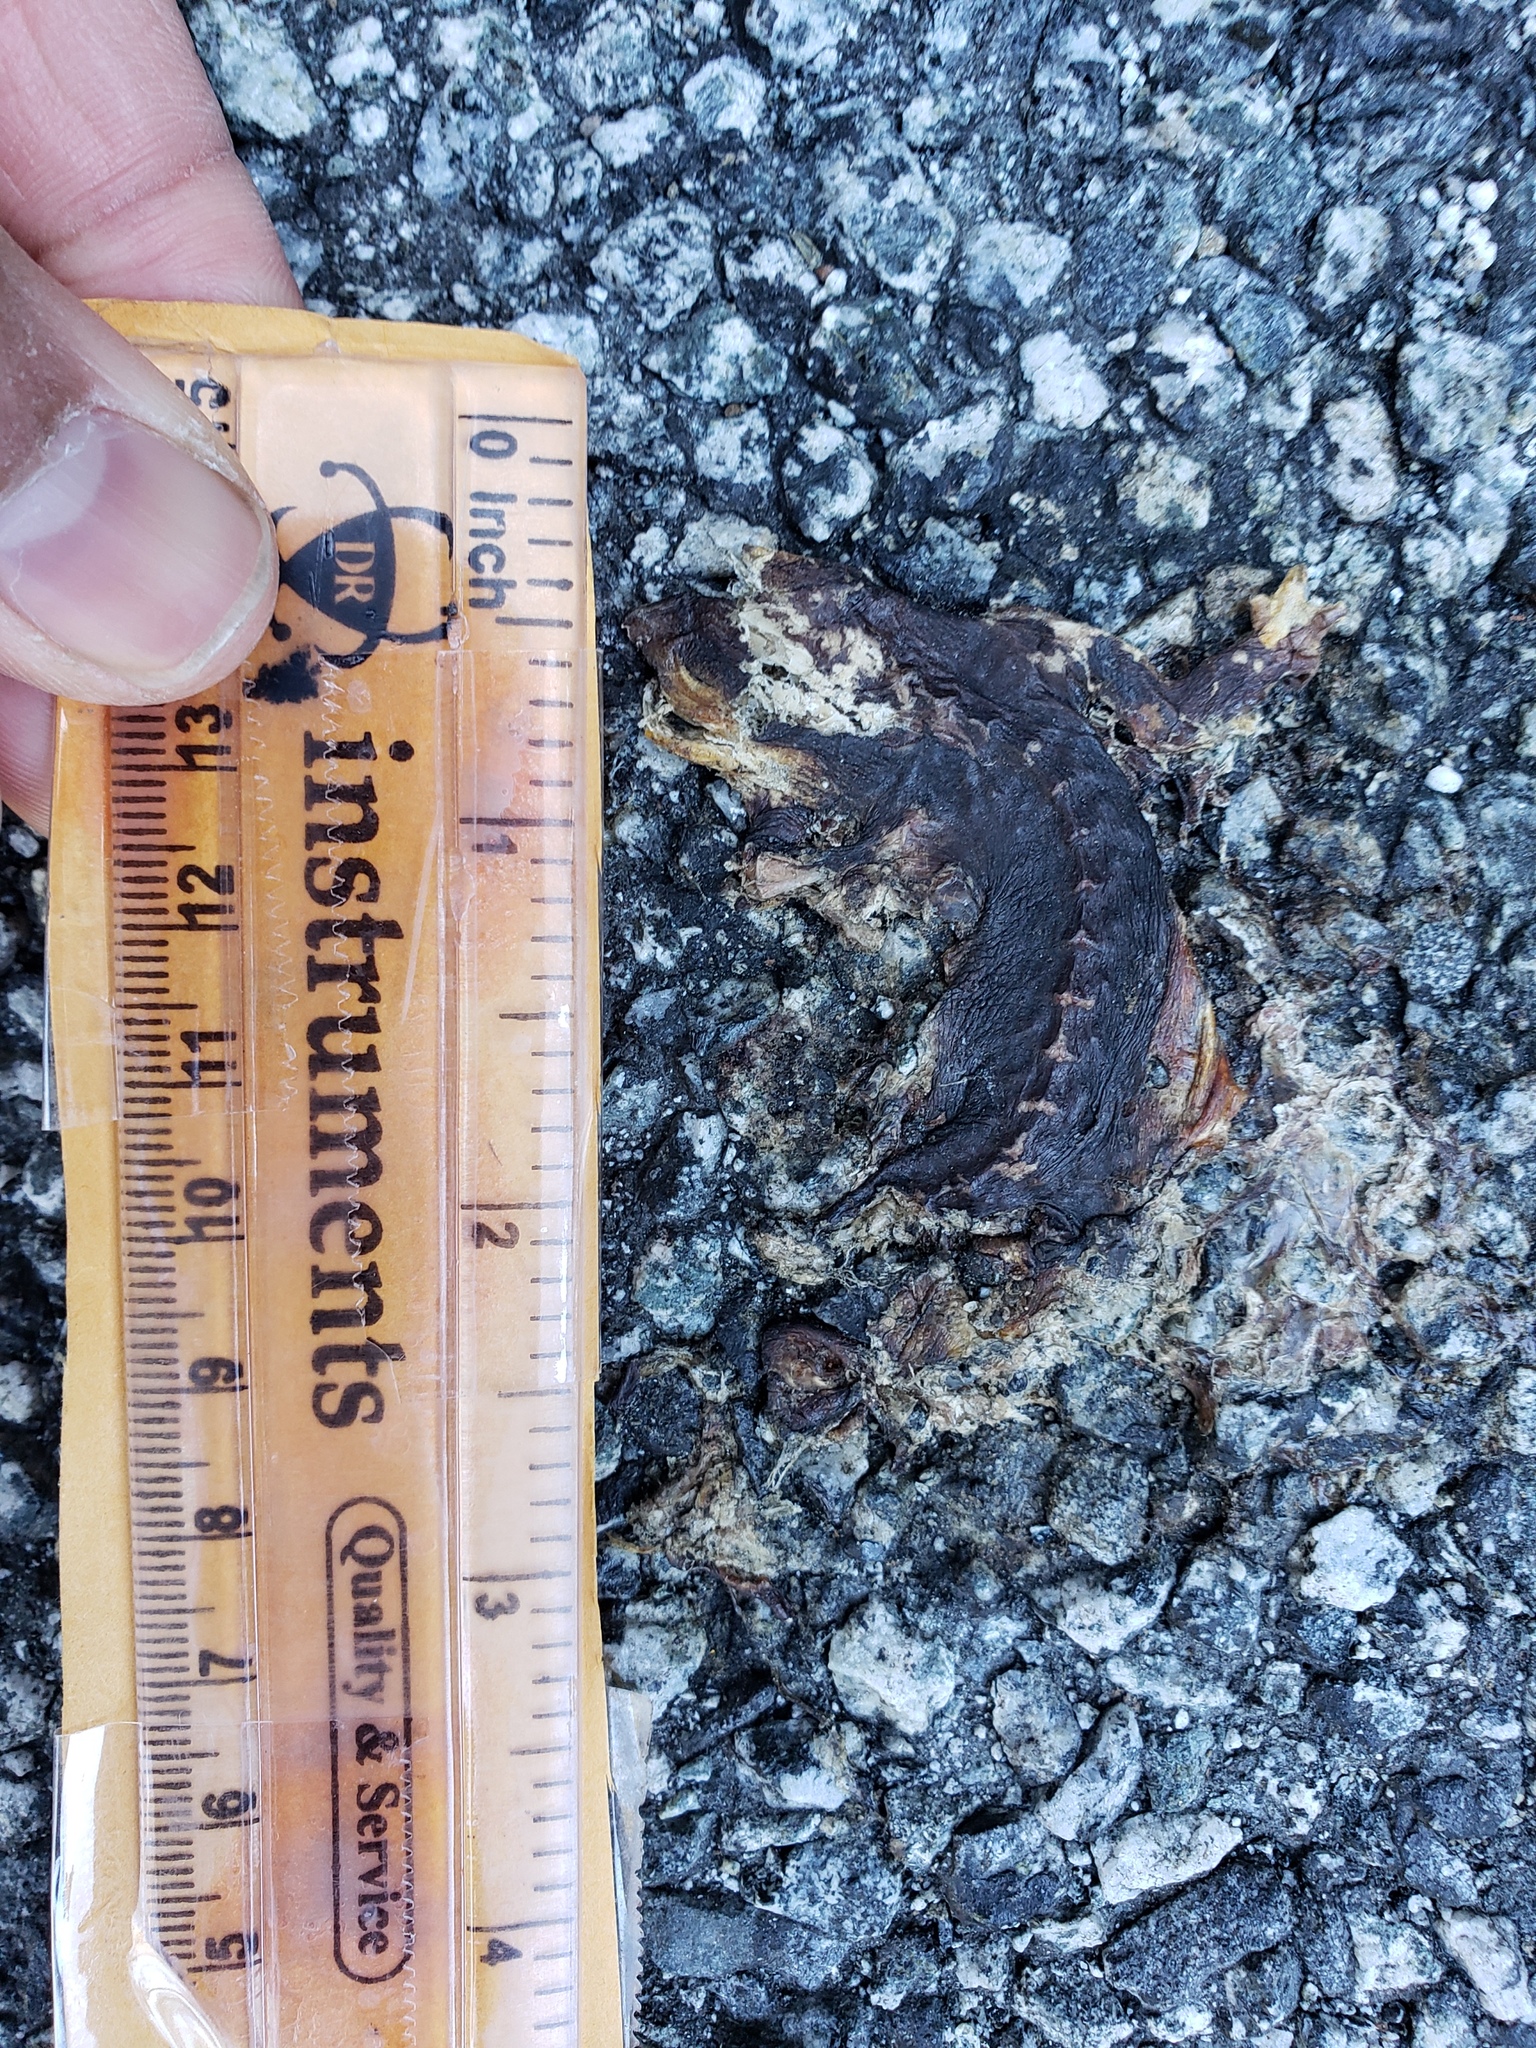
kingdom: Animalia
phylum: Chordata
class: Amphibia
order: Caudata
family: Salamandridae
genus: Taricha
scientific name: Taricha
